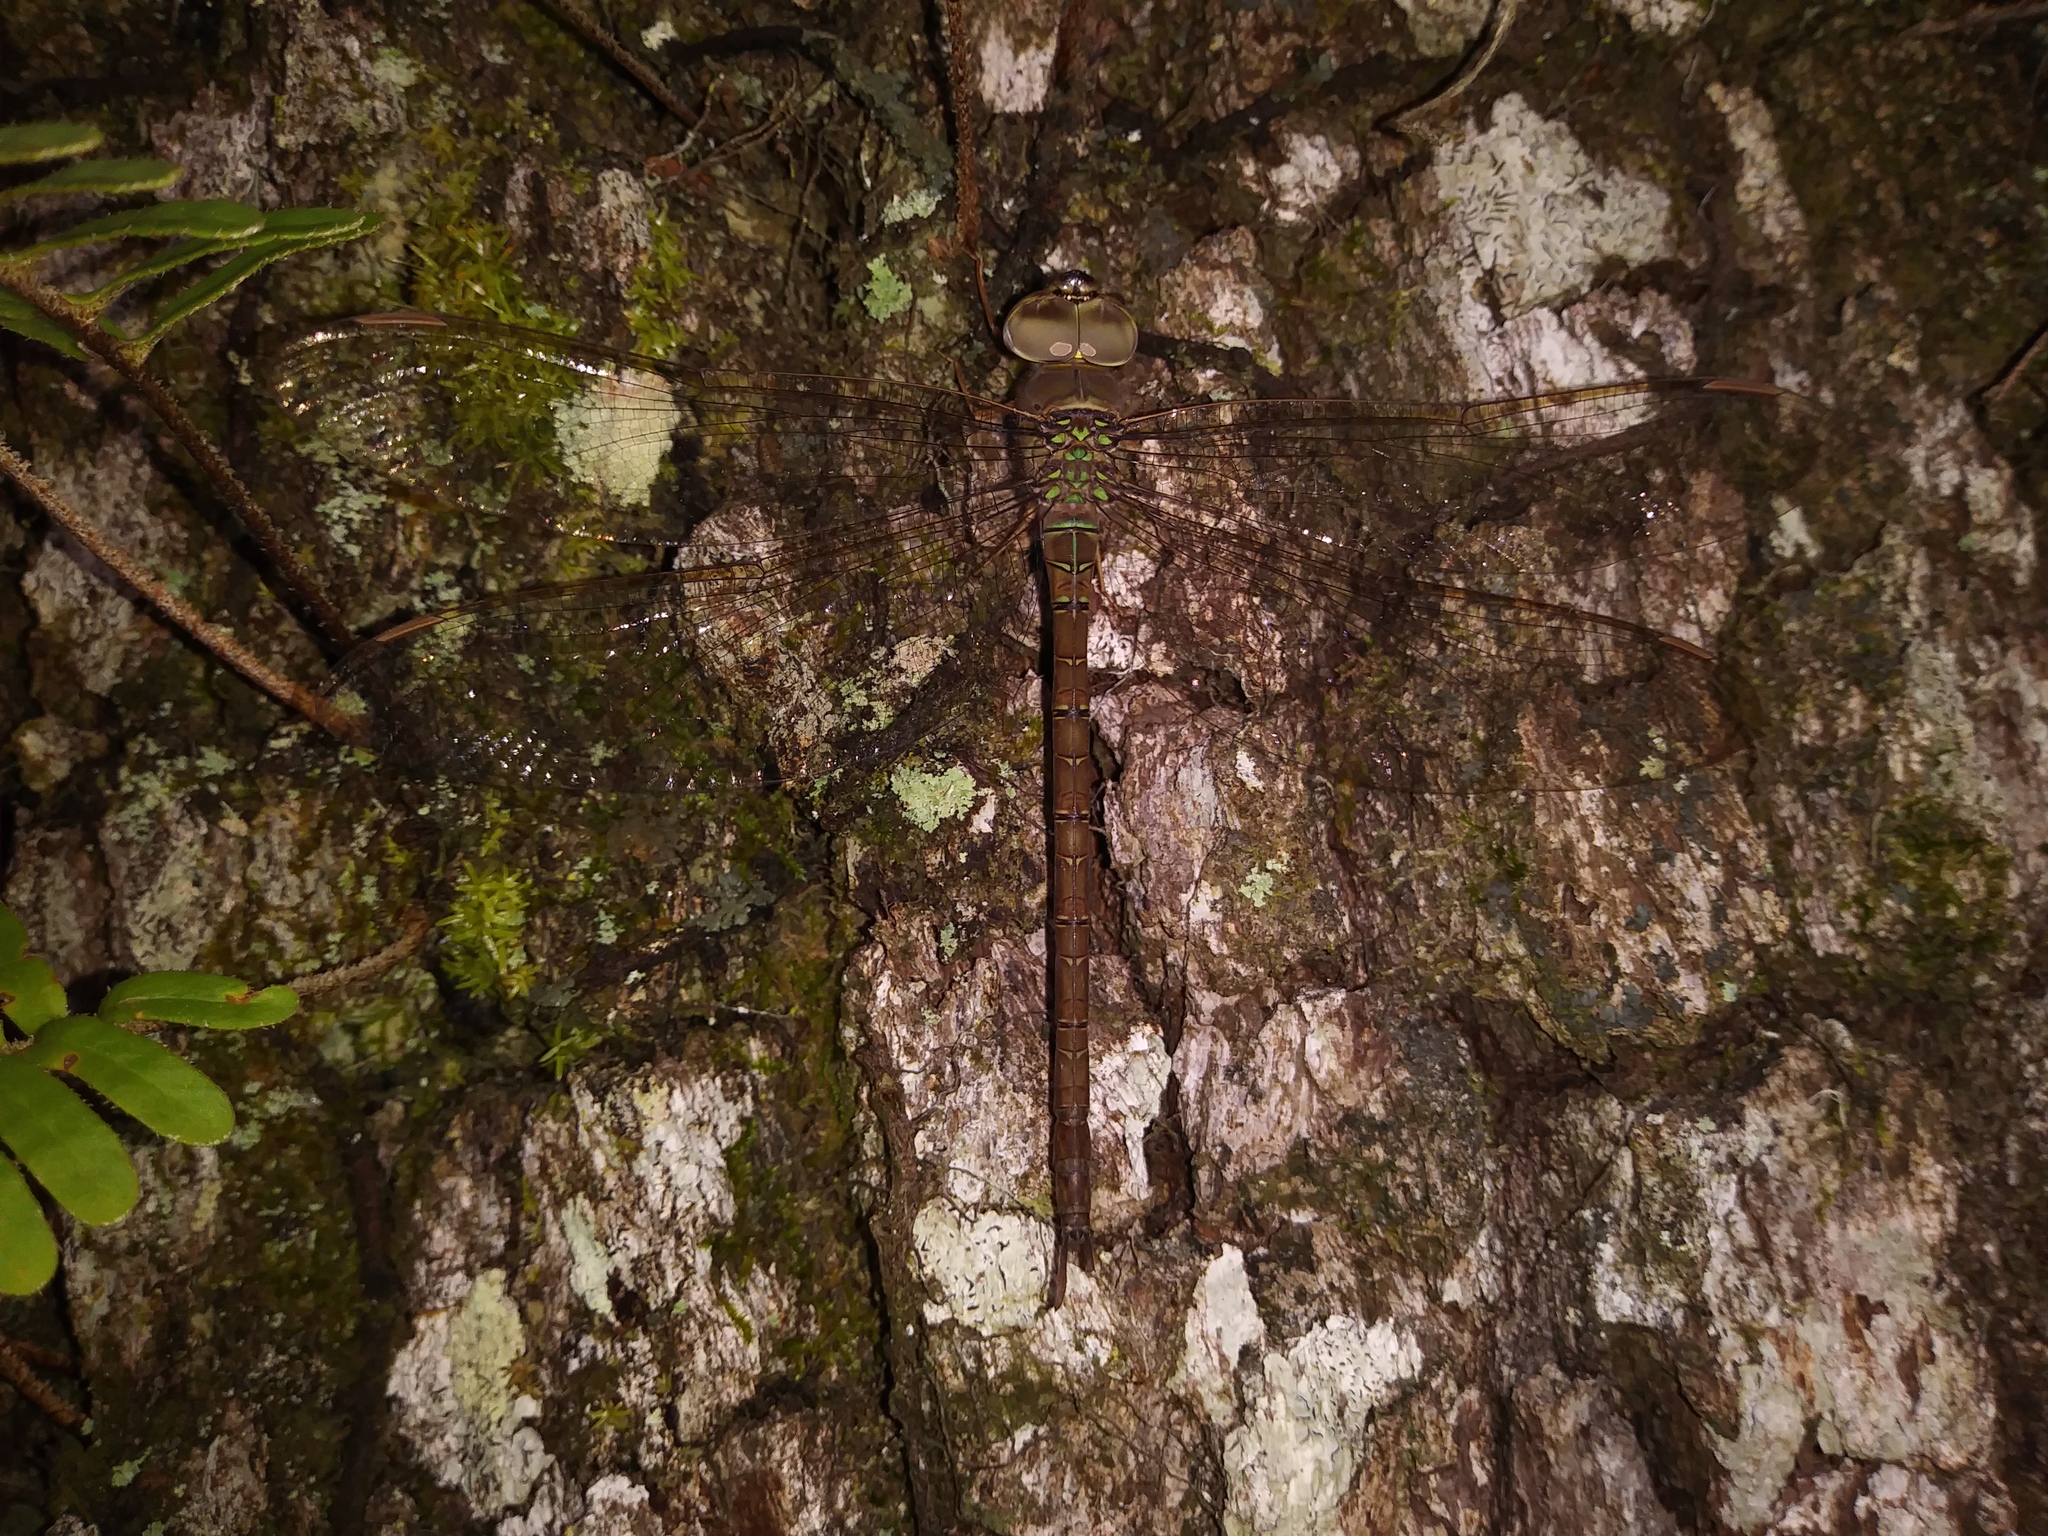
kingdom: Animalia
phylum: Arthropoda
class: Insecta
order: Odonata
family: Aeshnidae
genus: Gynacantha
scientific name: Gynacantha nervosa
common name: Twilight darner
